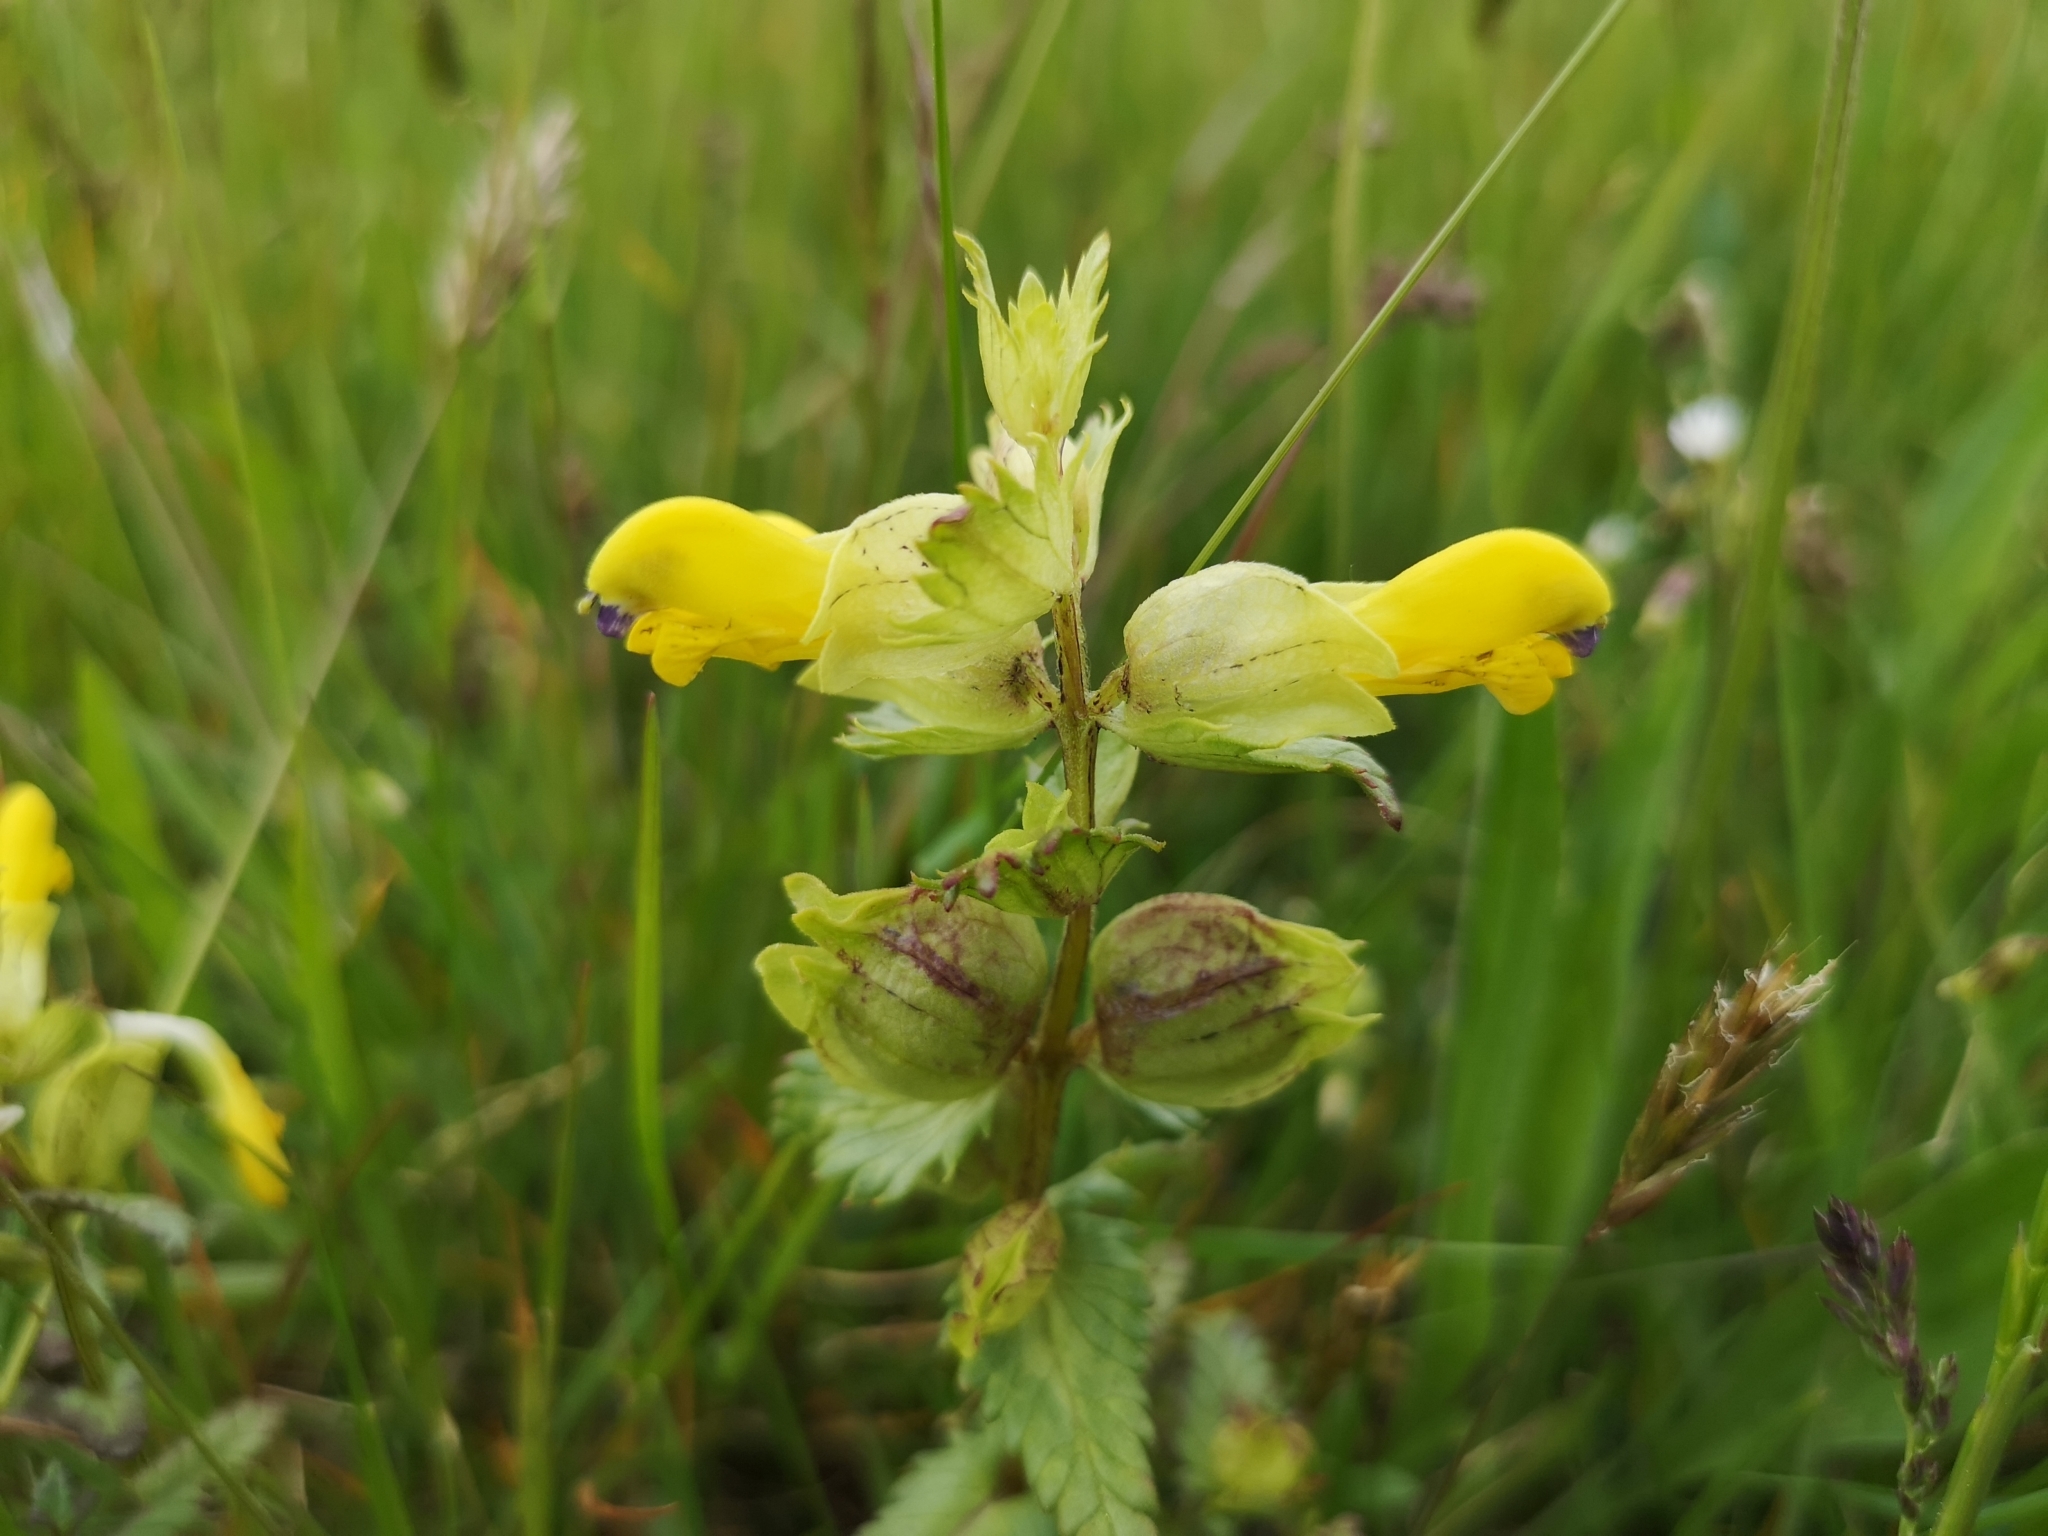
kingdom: Plantae
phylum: Tracheophyta
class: Magnoliopsida
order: Lamiales
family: Orobanchaceae
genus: Rhinanthus
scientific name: Rhinanthus serotinus
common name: Late-flowering yellow rattle
